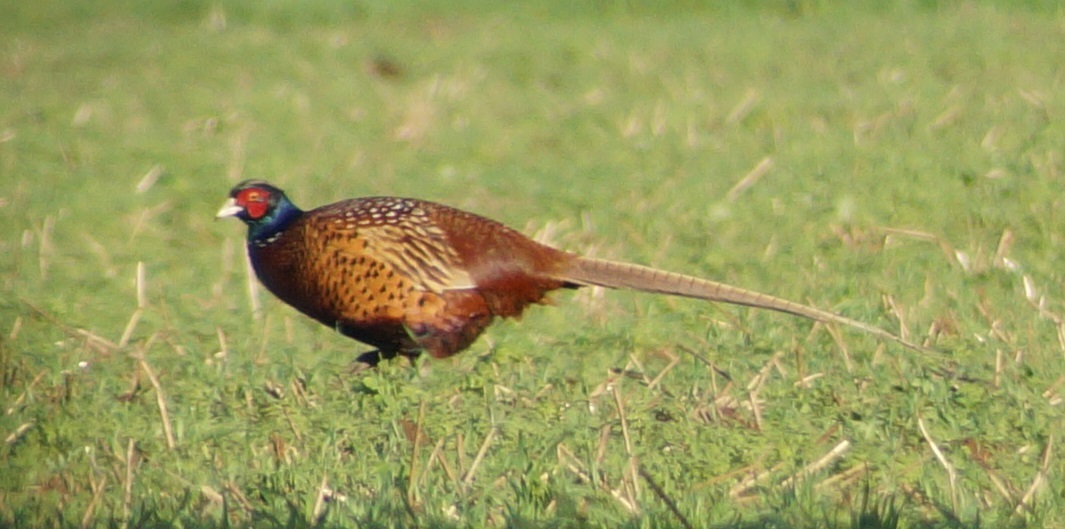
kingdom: Animalia
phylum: Chordata
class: Aves
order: Galliformes
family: Phasianidae
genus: Phasianus
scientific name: Phasianus colchicus
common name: Common pheasant
